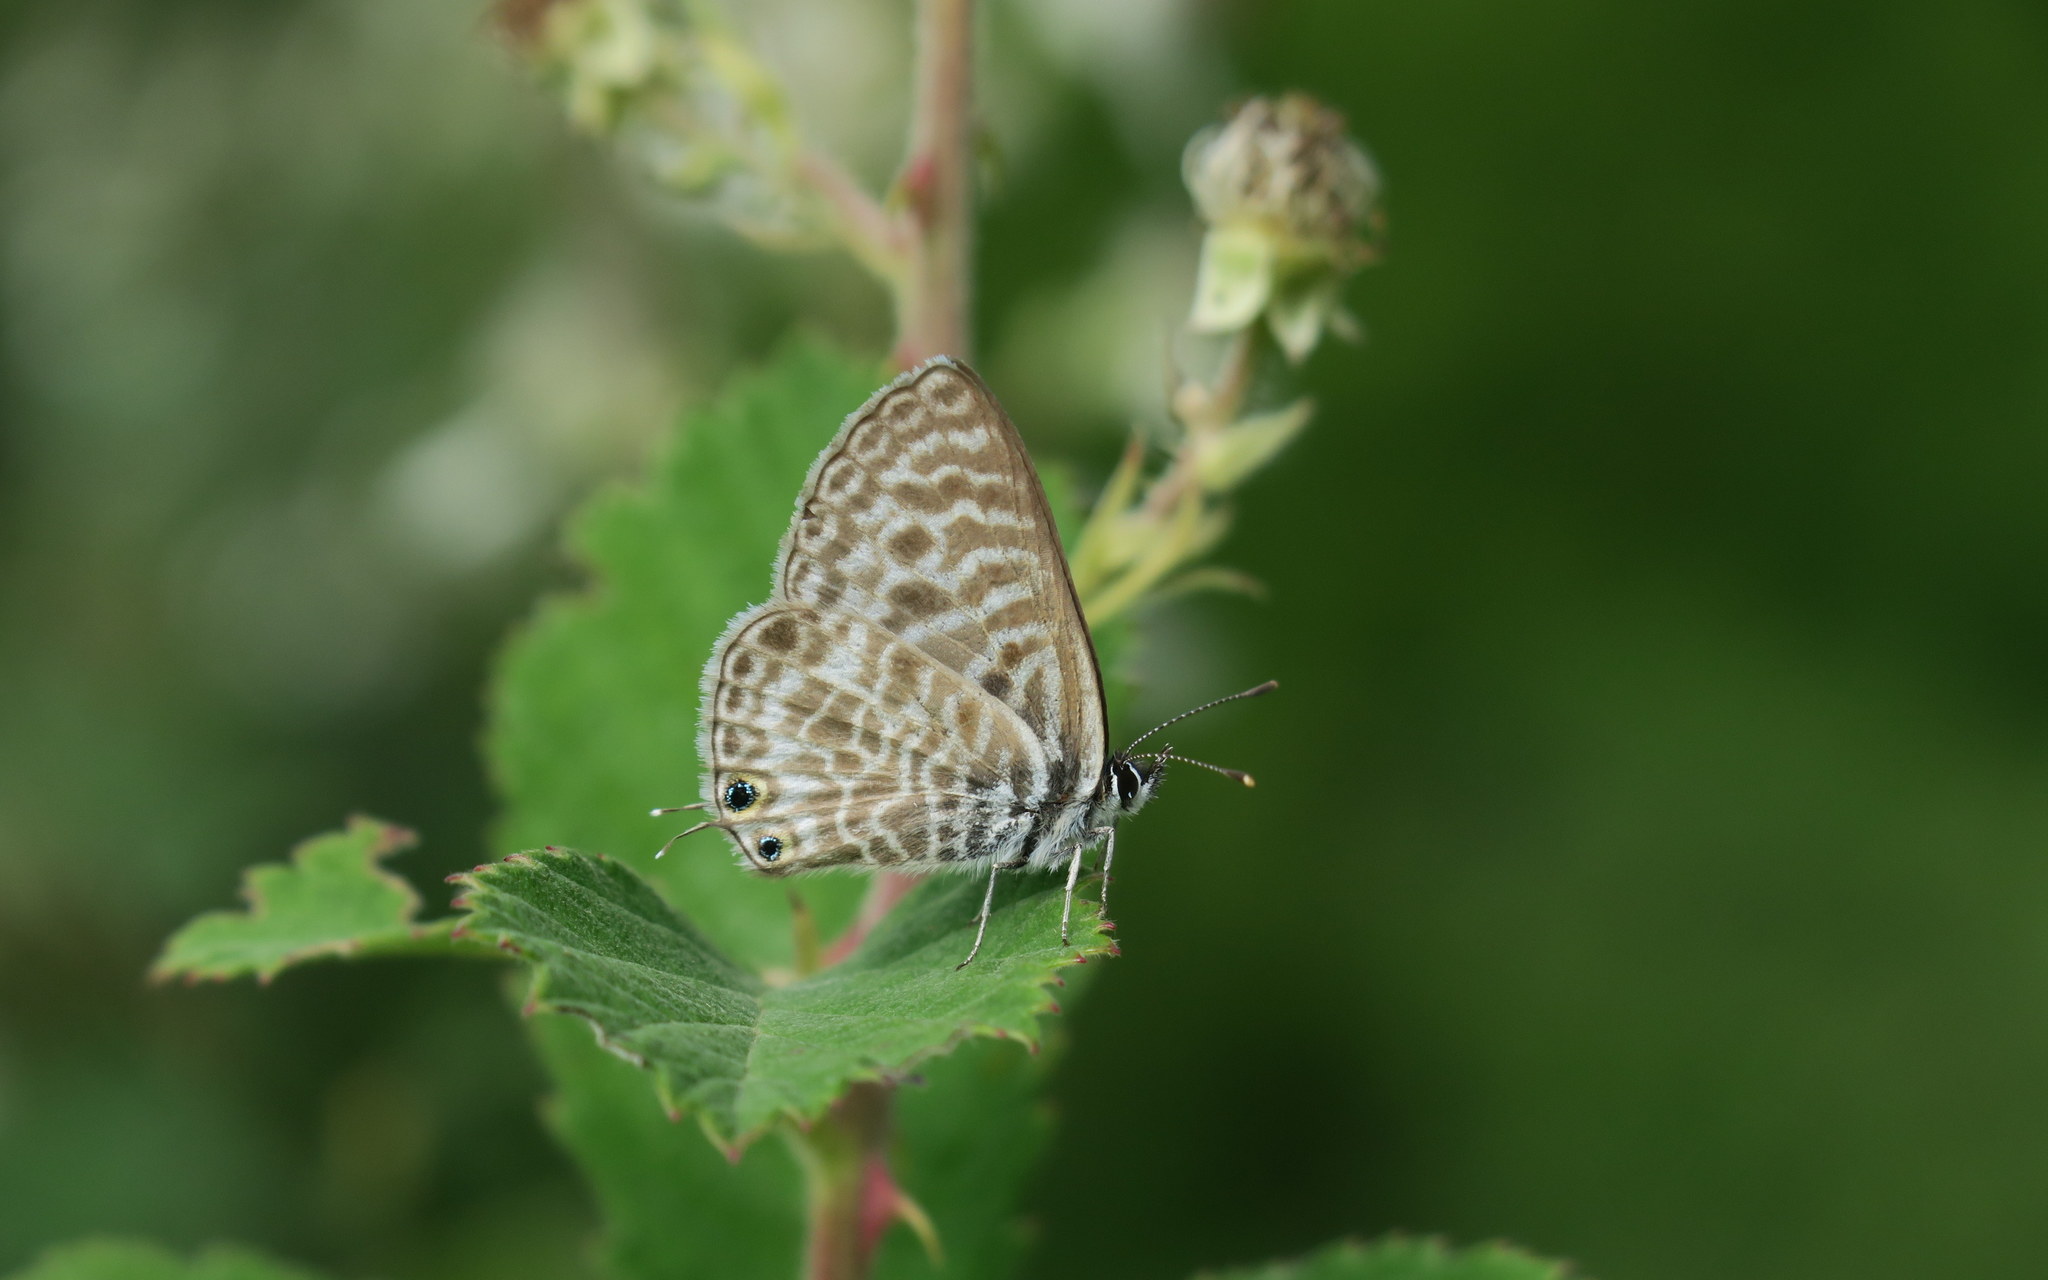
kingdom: Animalia
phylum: Arthropoda
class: Insecta
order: Lepidoptera
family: Lycaenidae
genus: Leptotes
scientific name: Leptotes pirithous
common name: Lang's short-tailed blue
